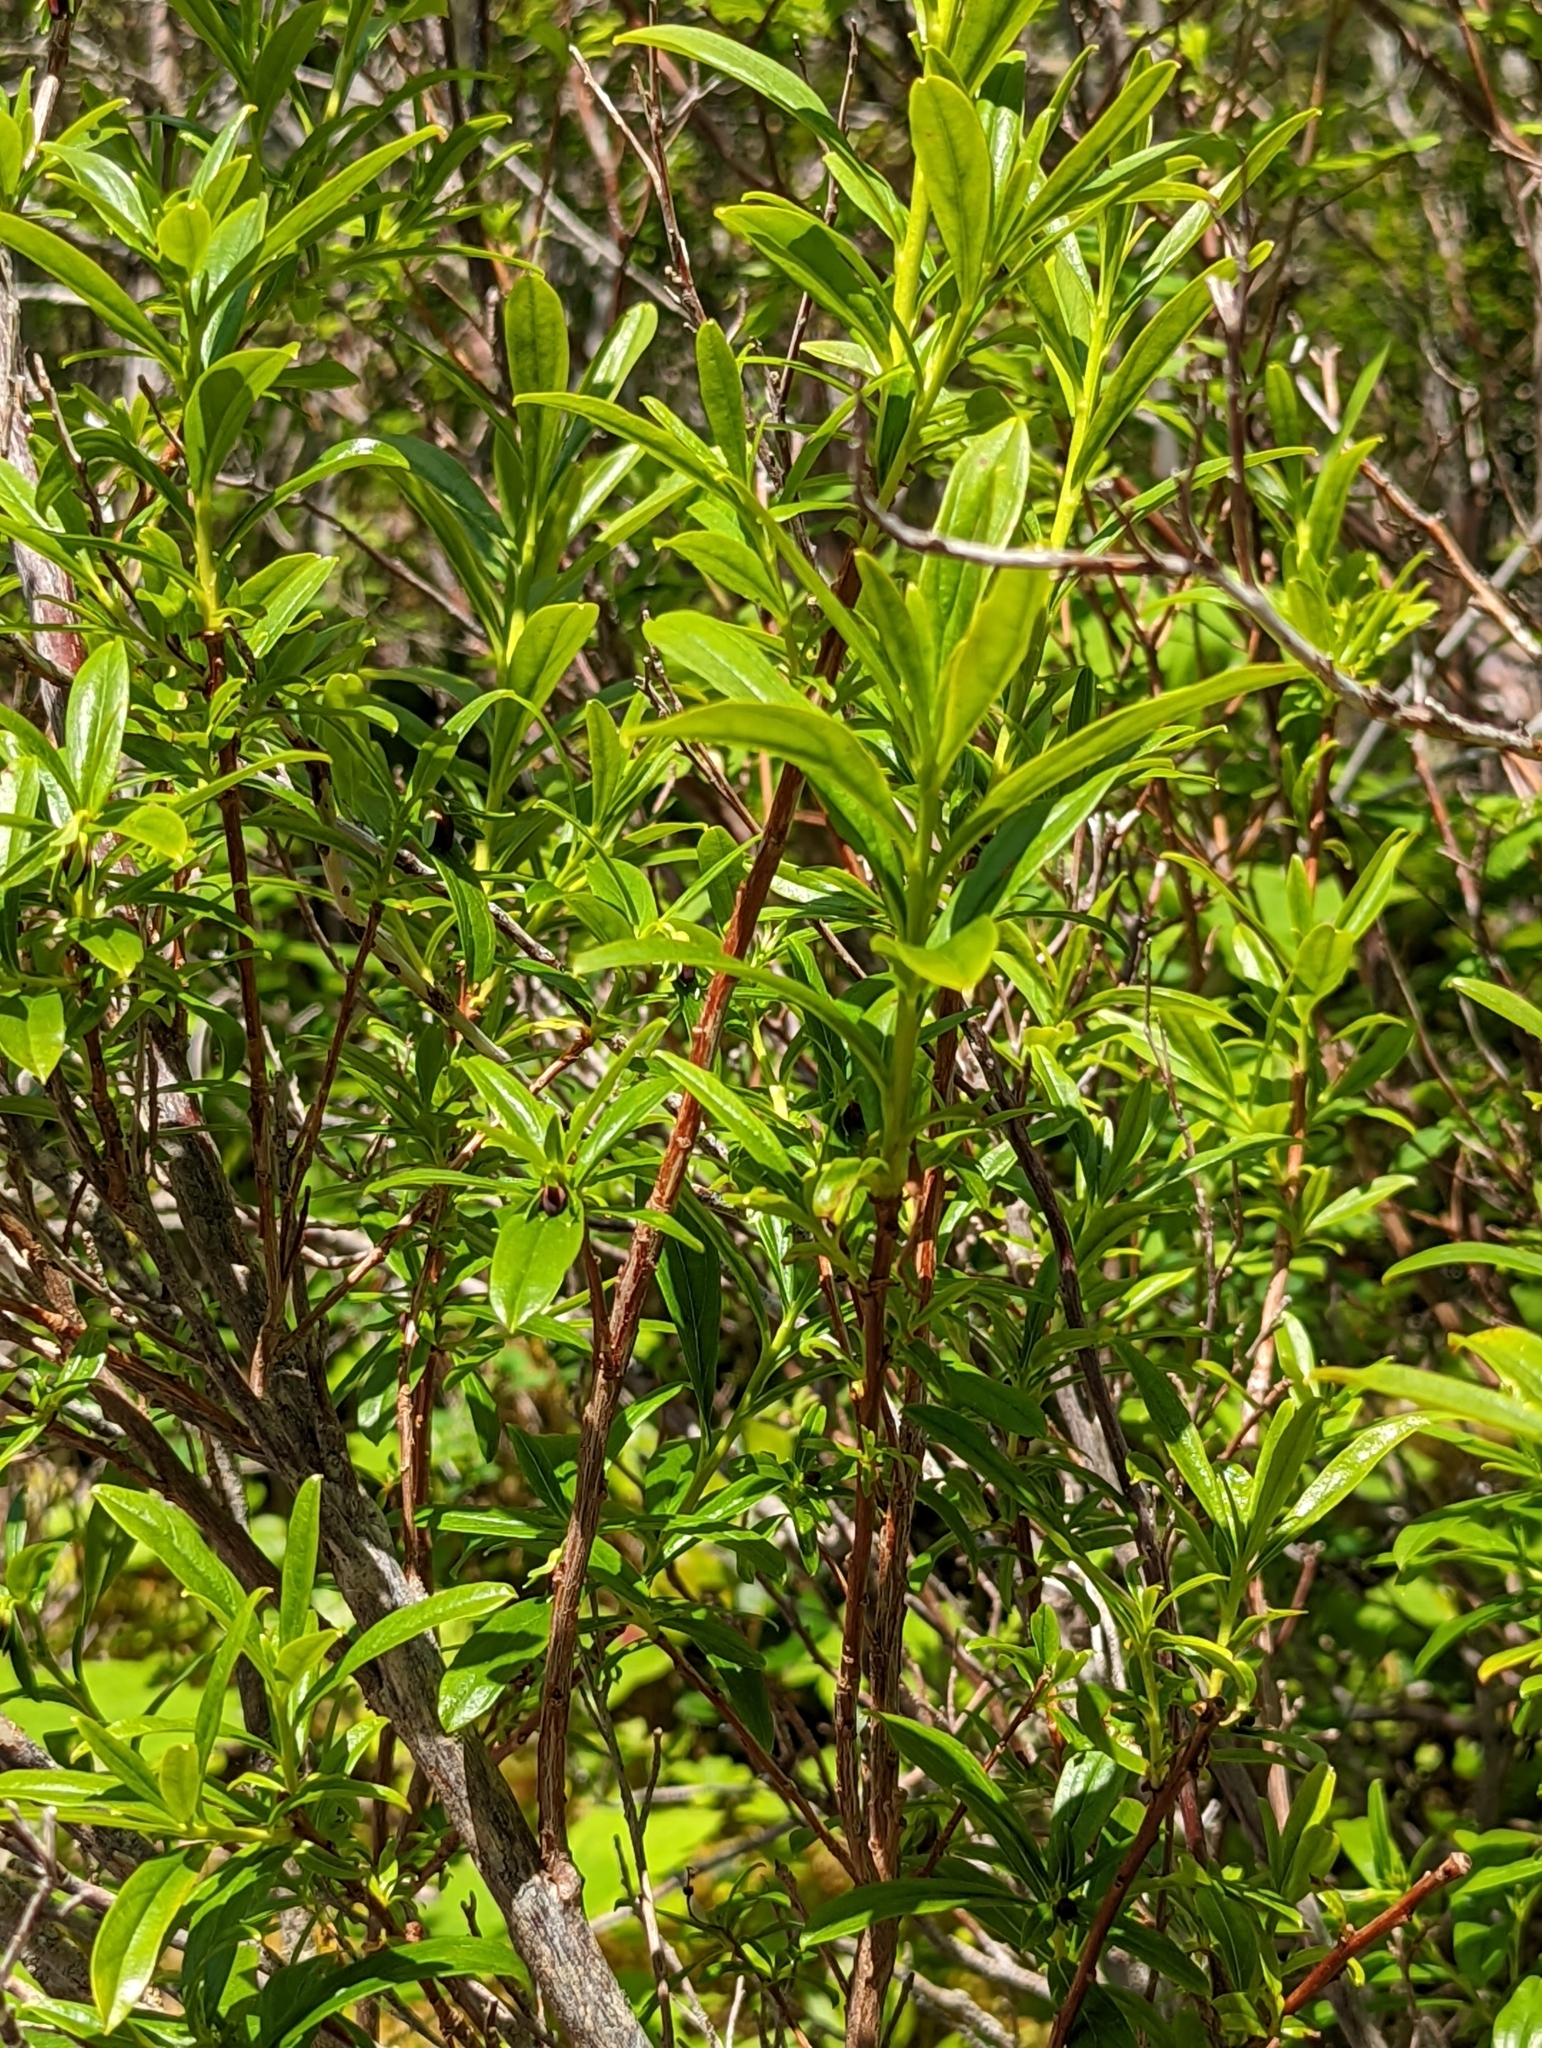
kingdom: Plantae
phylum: Tracheophyta
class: Magnoliopsida
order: Ericales
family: Ericaceae
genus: Elliottia
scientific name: Elliottia pyroliflora
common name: Copperbush
